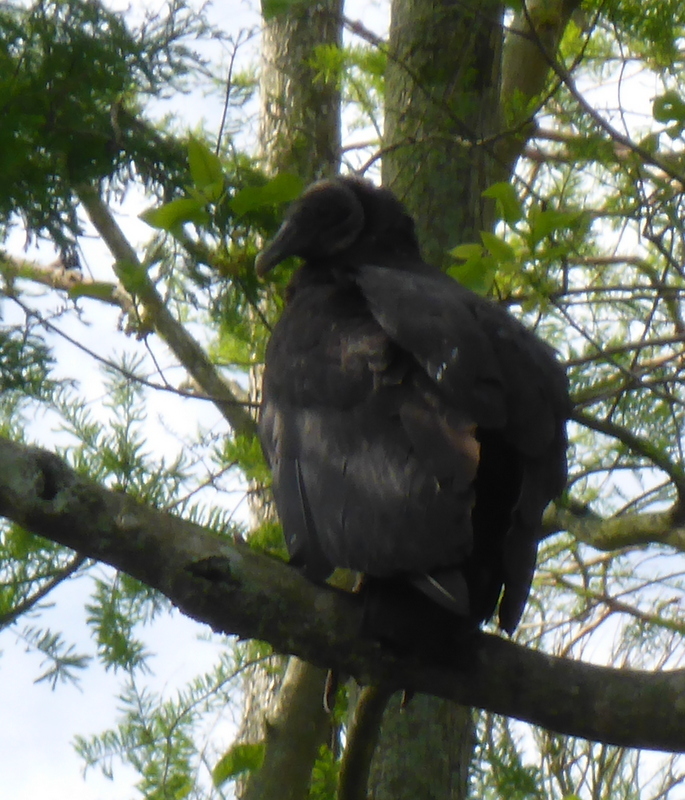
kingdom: Animalia
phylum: Chordata
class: Aves
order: Accipitriformes
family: Cathartidae
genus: Coragyps
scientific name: Coragyps atratus
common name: Black vulture
